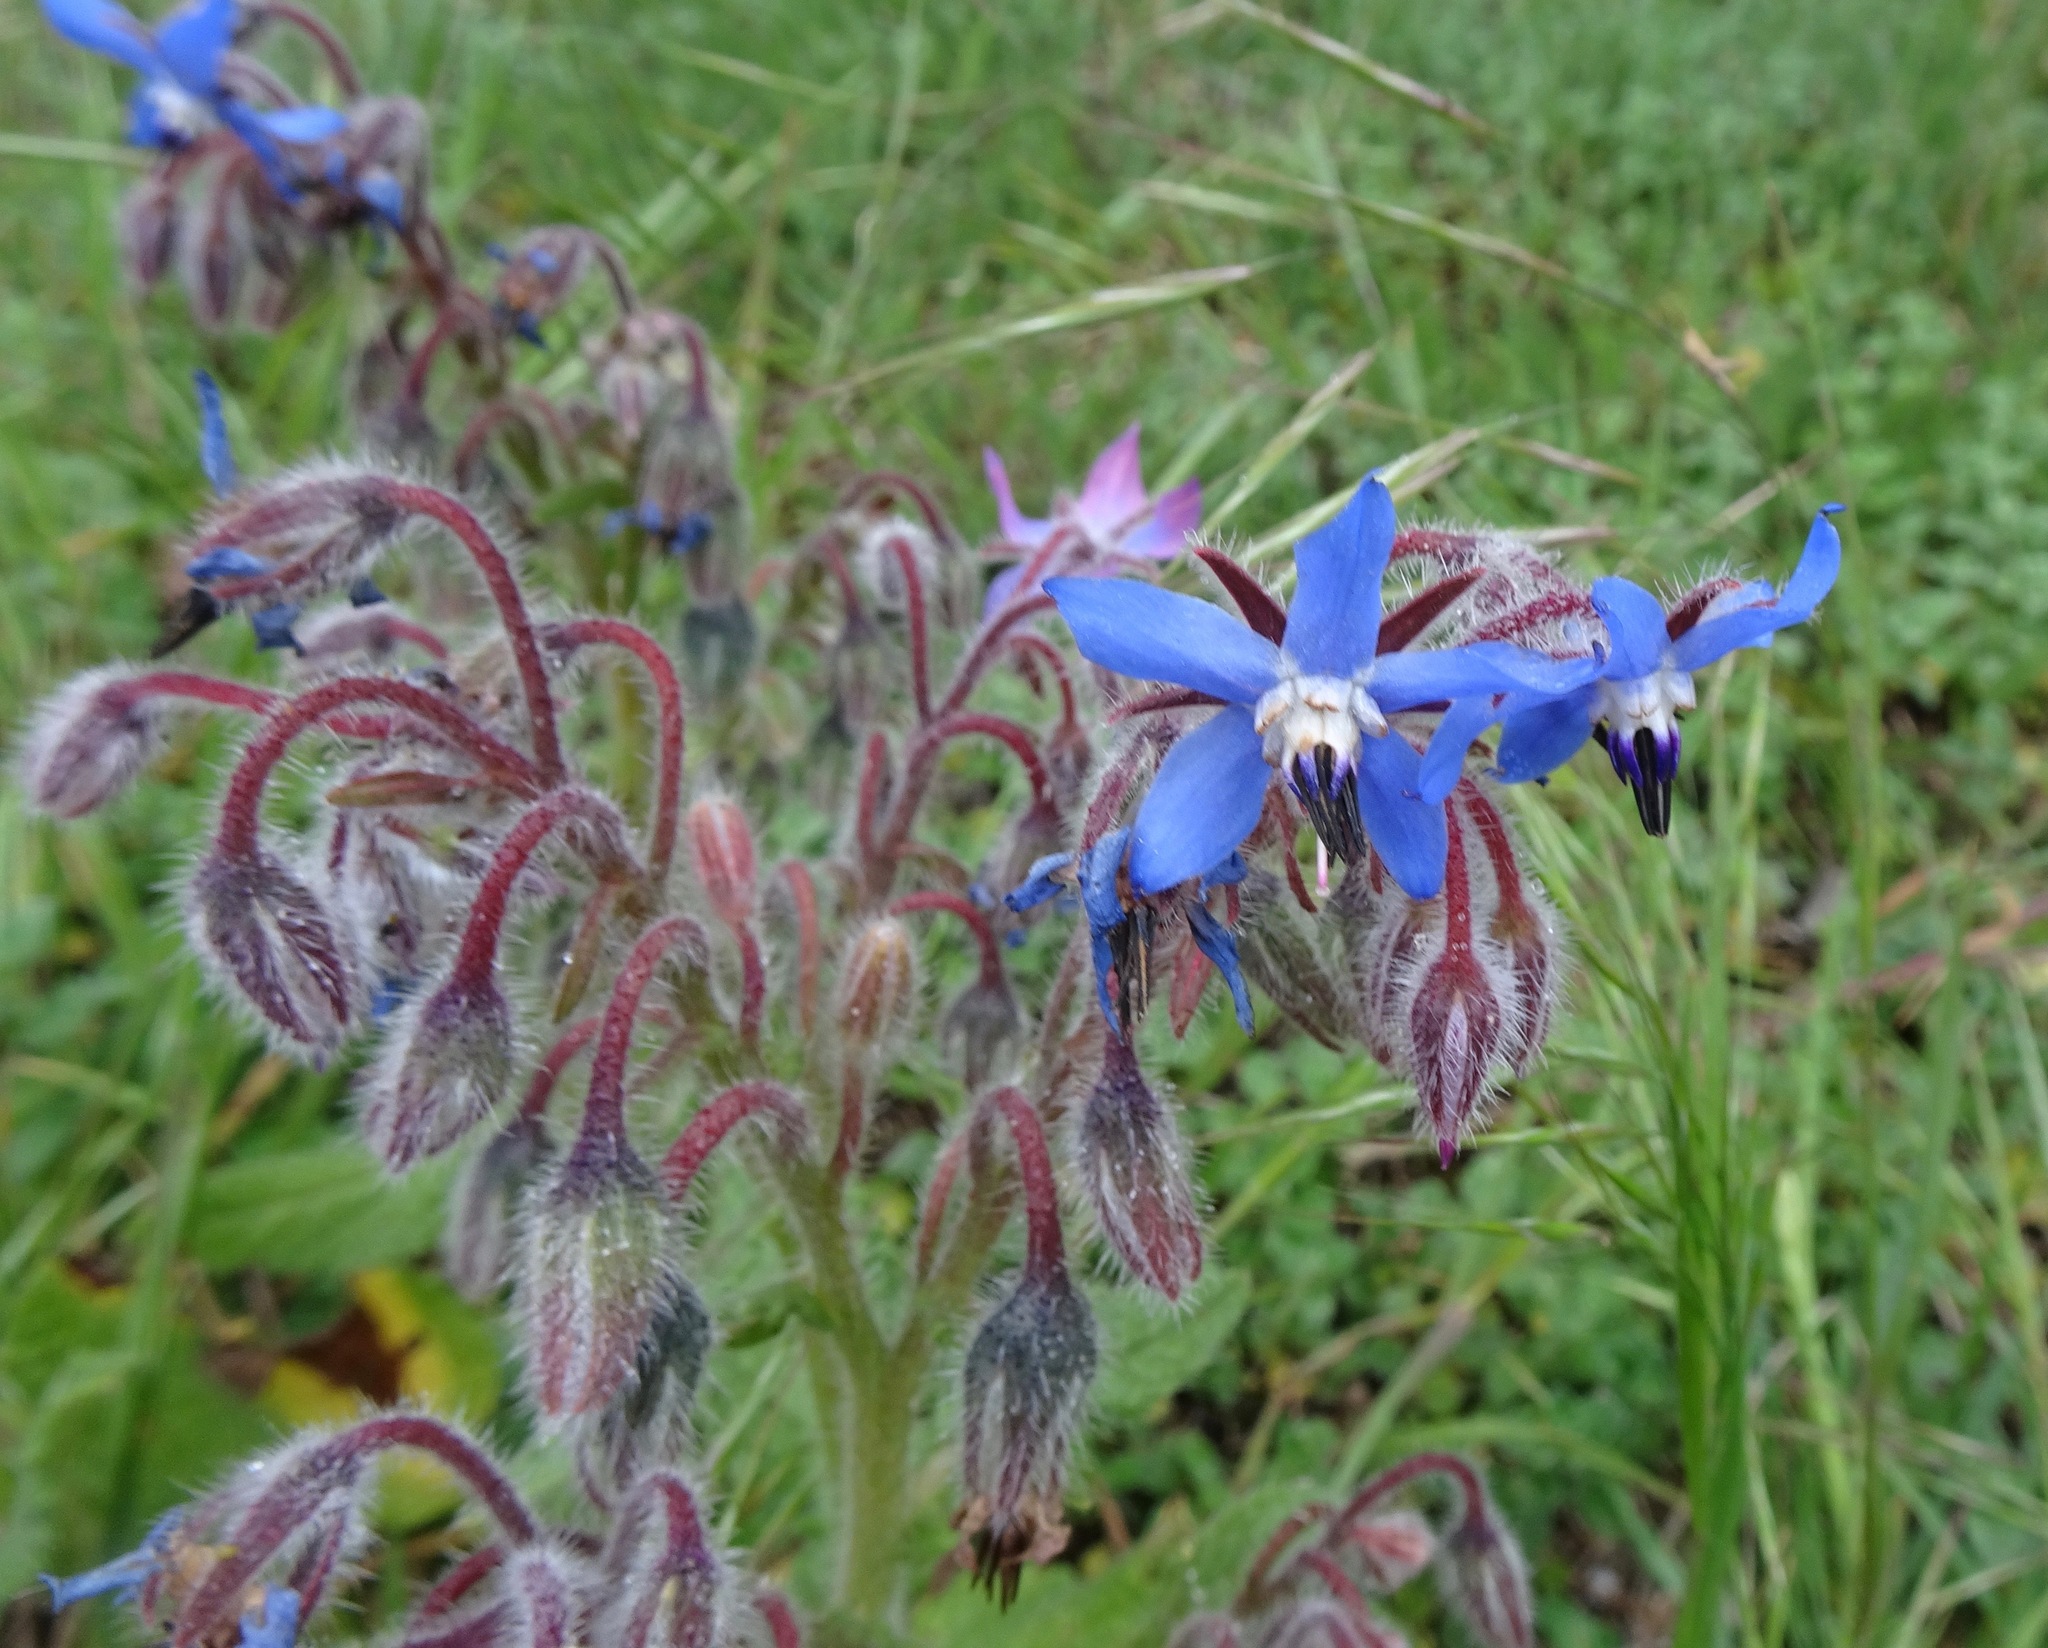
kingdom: Plantae
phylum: Tracheophyta
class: Magnoliopsida
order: Boraginales
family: Boraginaceae
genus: Borago
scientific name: Borago officinalis
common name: Borage
